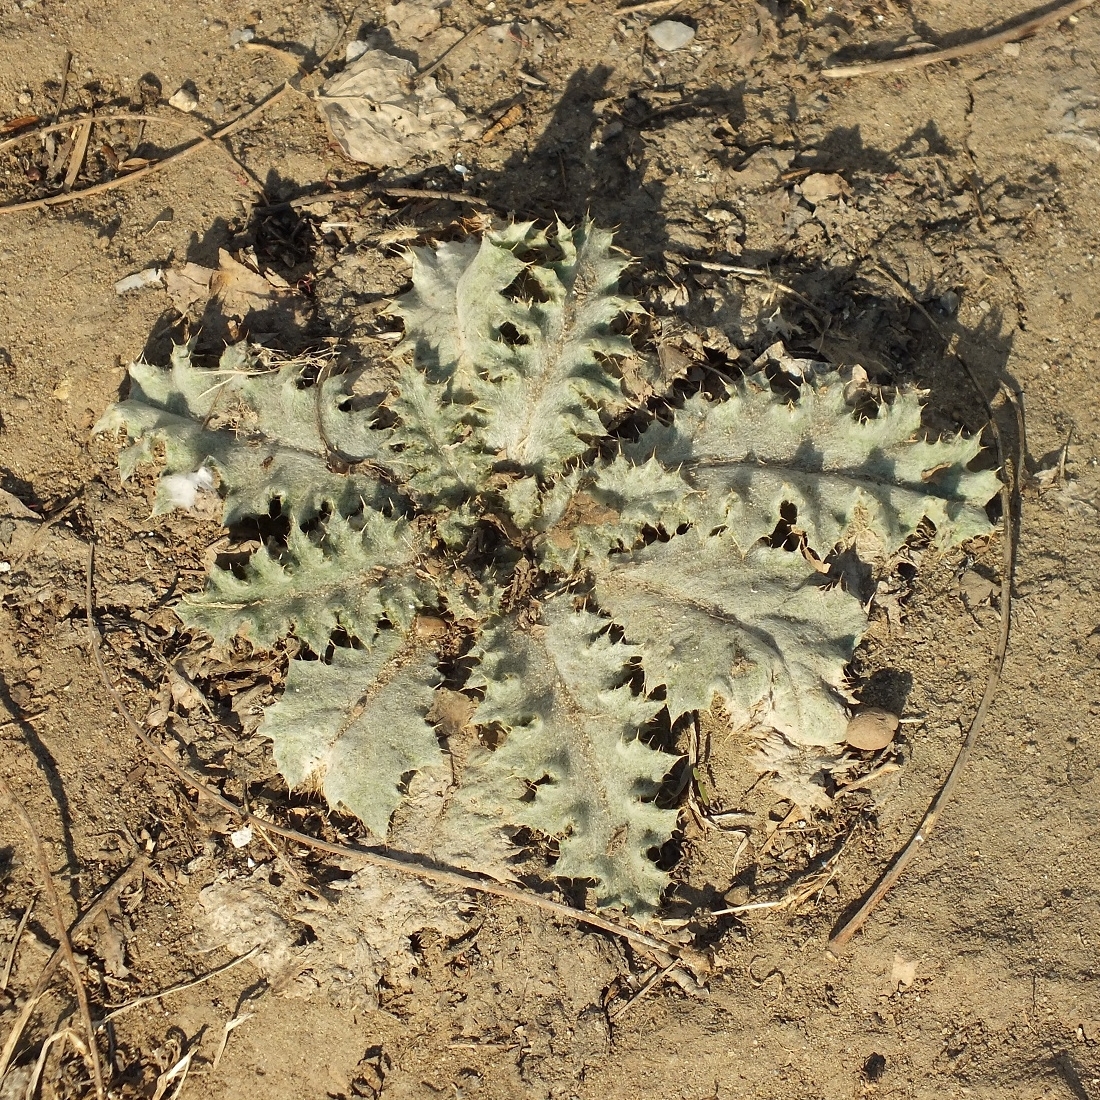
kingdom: Plantae
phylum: Tracheophyta
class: Magnoliopsida
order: Asterales
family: Asteraceae
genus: Onopordum
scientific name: Onopordum acanthium
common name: Scotch thistle
